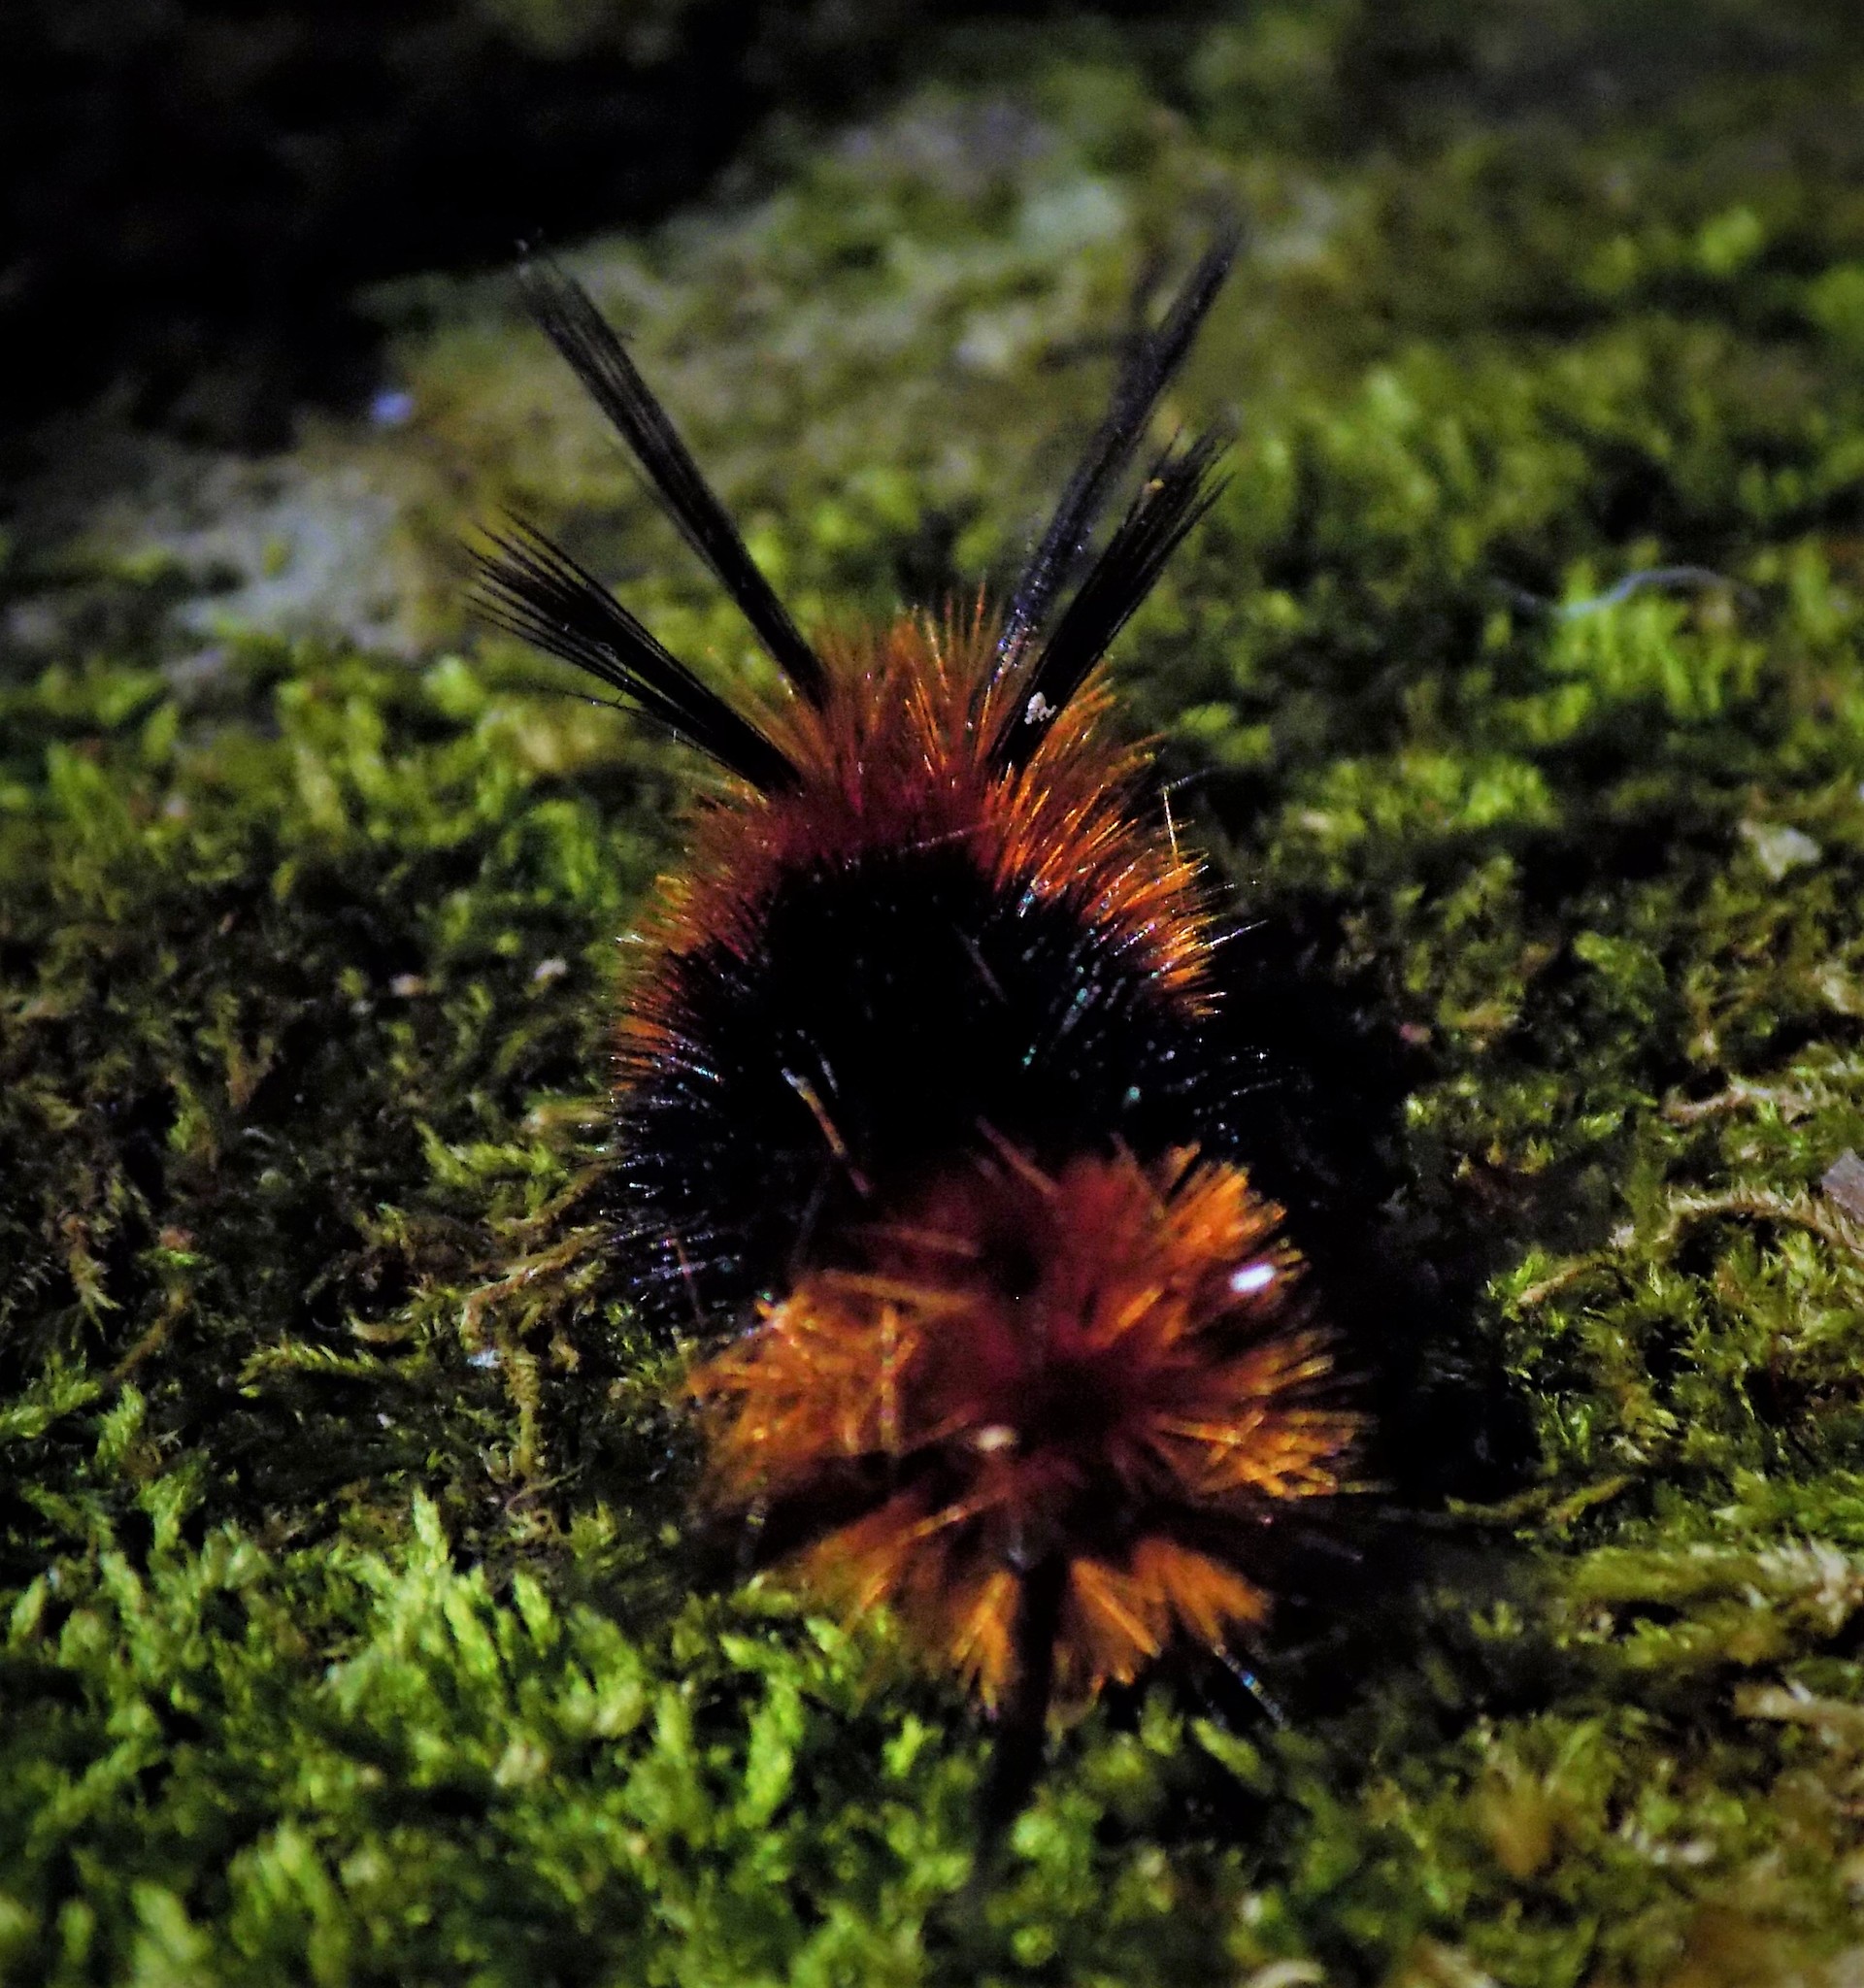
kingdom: Animalia
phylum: Arthropoda
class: Insecta
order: Lepidoptera
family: Erebidae
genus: Turuptiana
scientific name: Turuptiana
